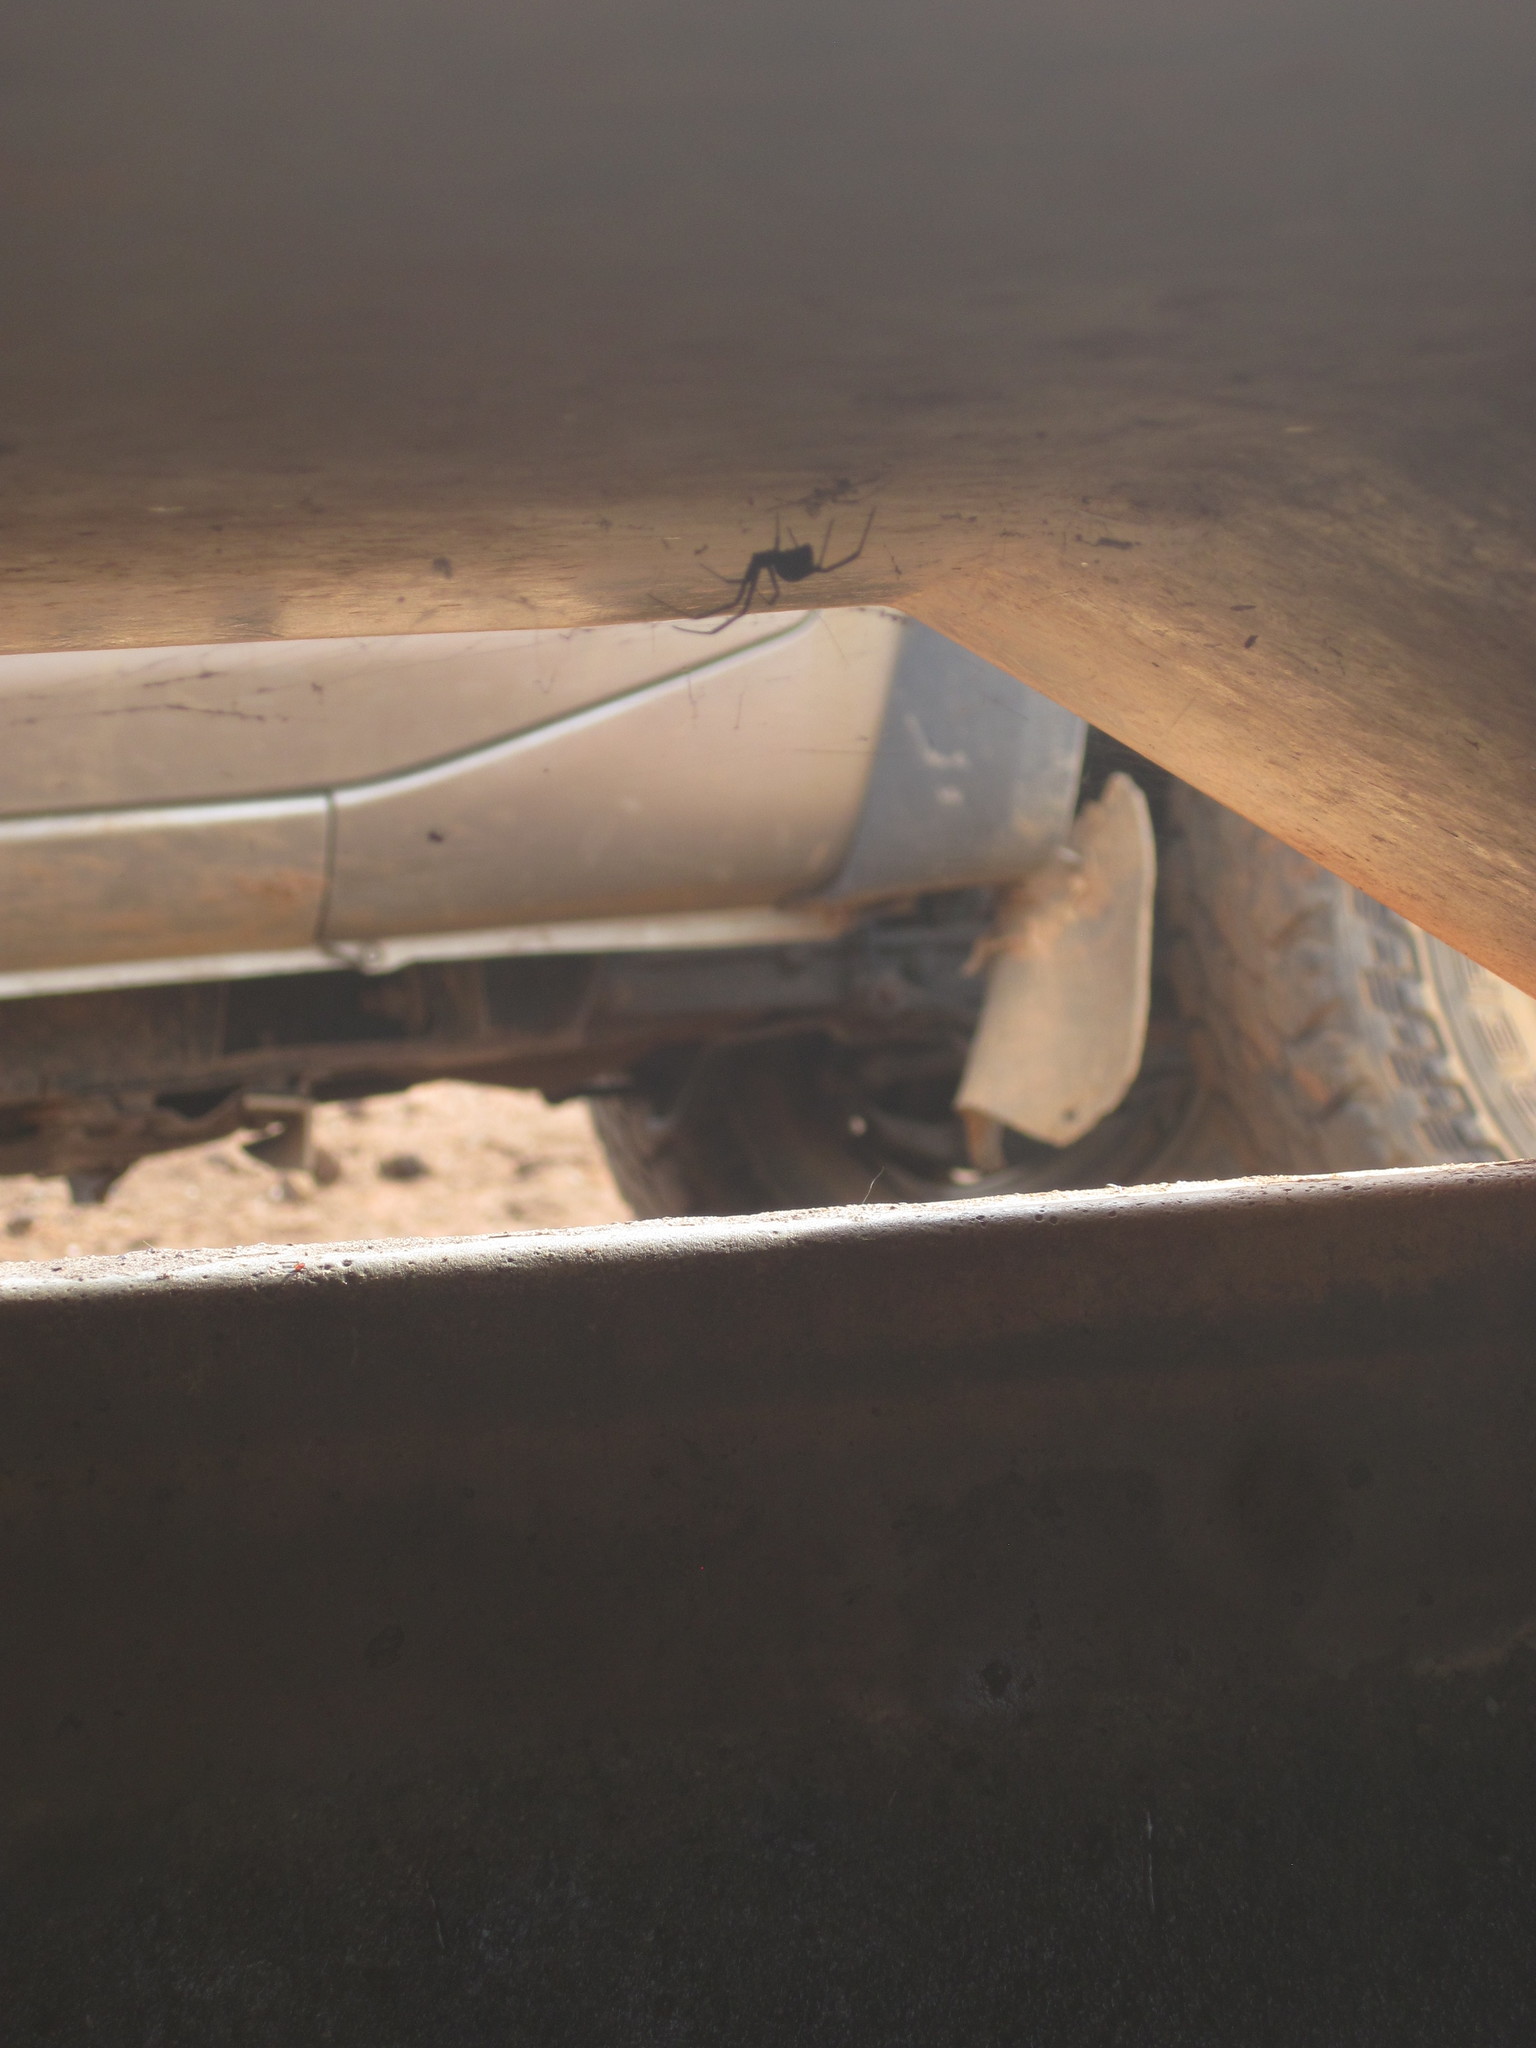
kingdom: Animalia
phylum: Arthropoda
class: Arachnida
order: Araneae
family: Theridiidae
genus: Latrodectus
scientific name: Latrodectus hasselti
